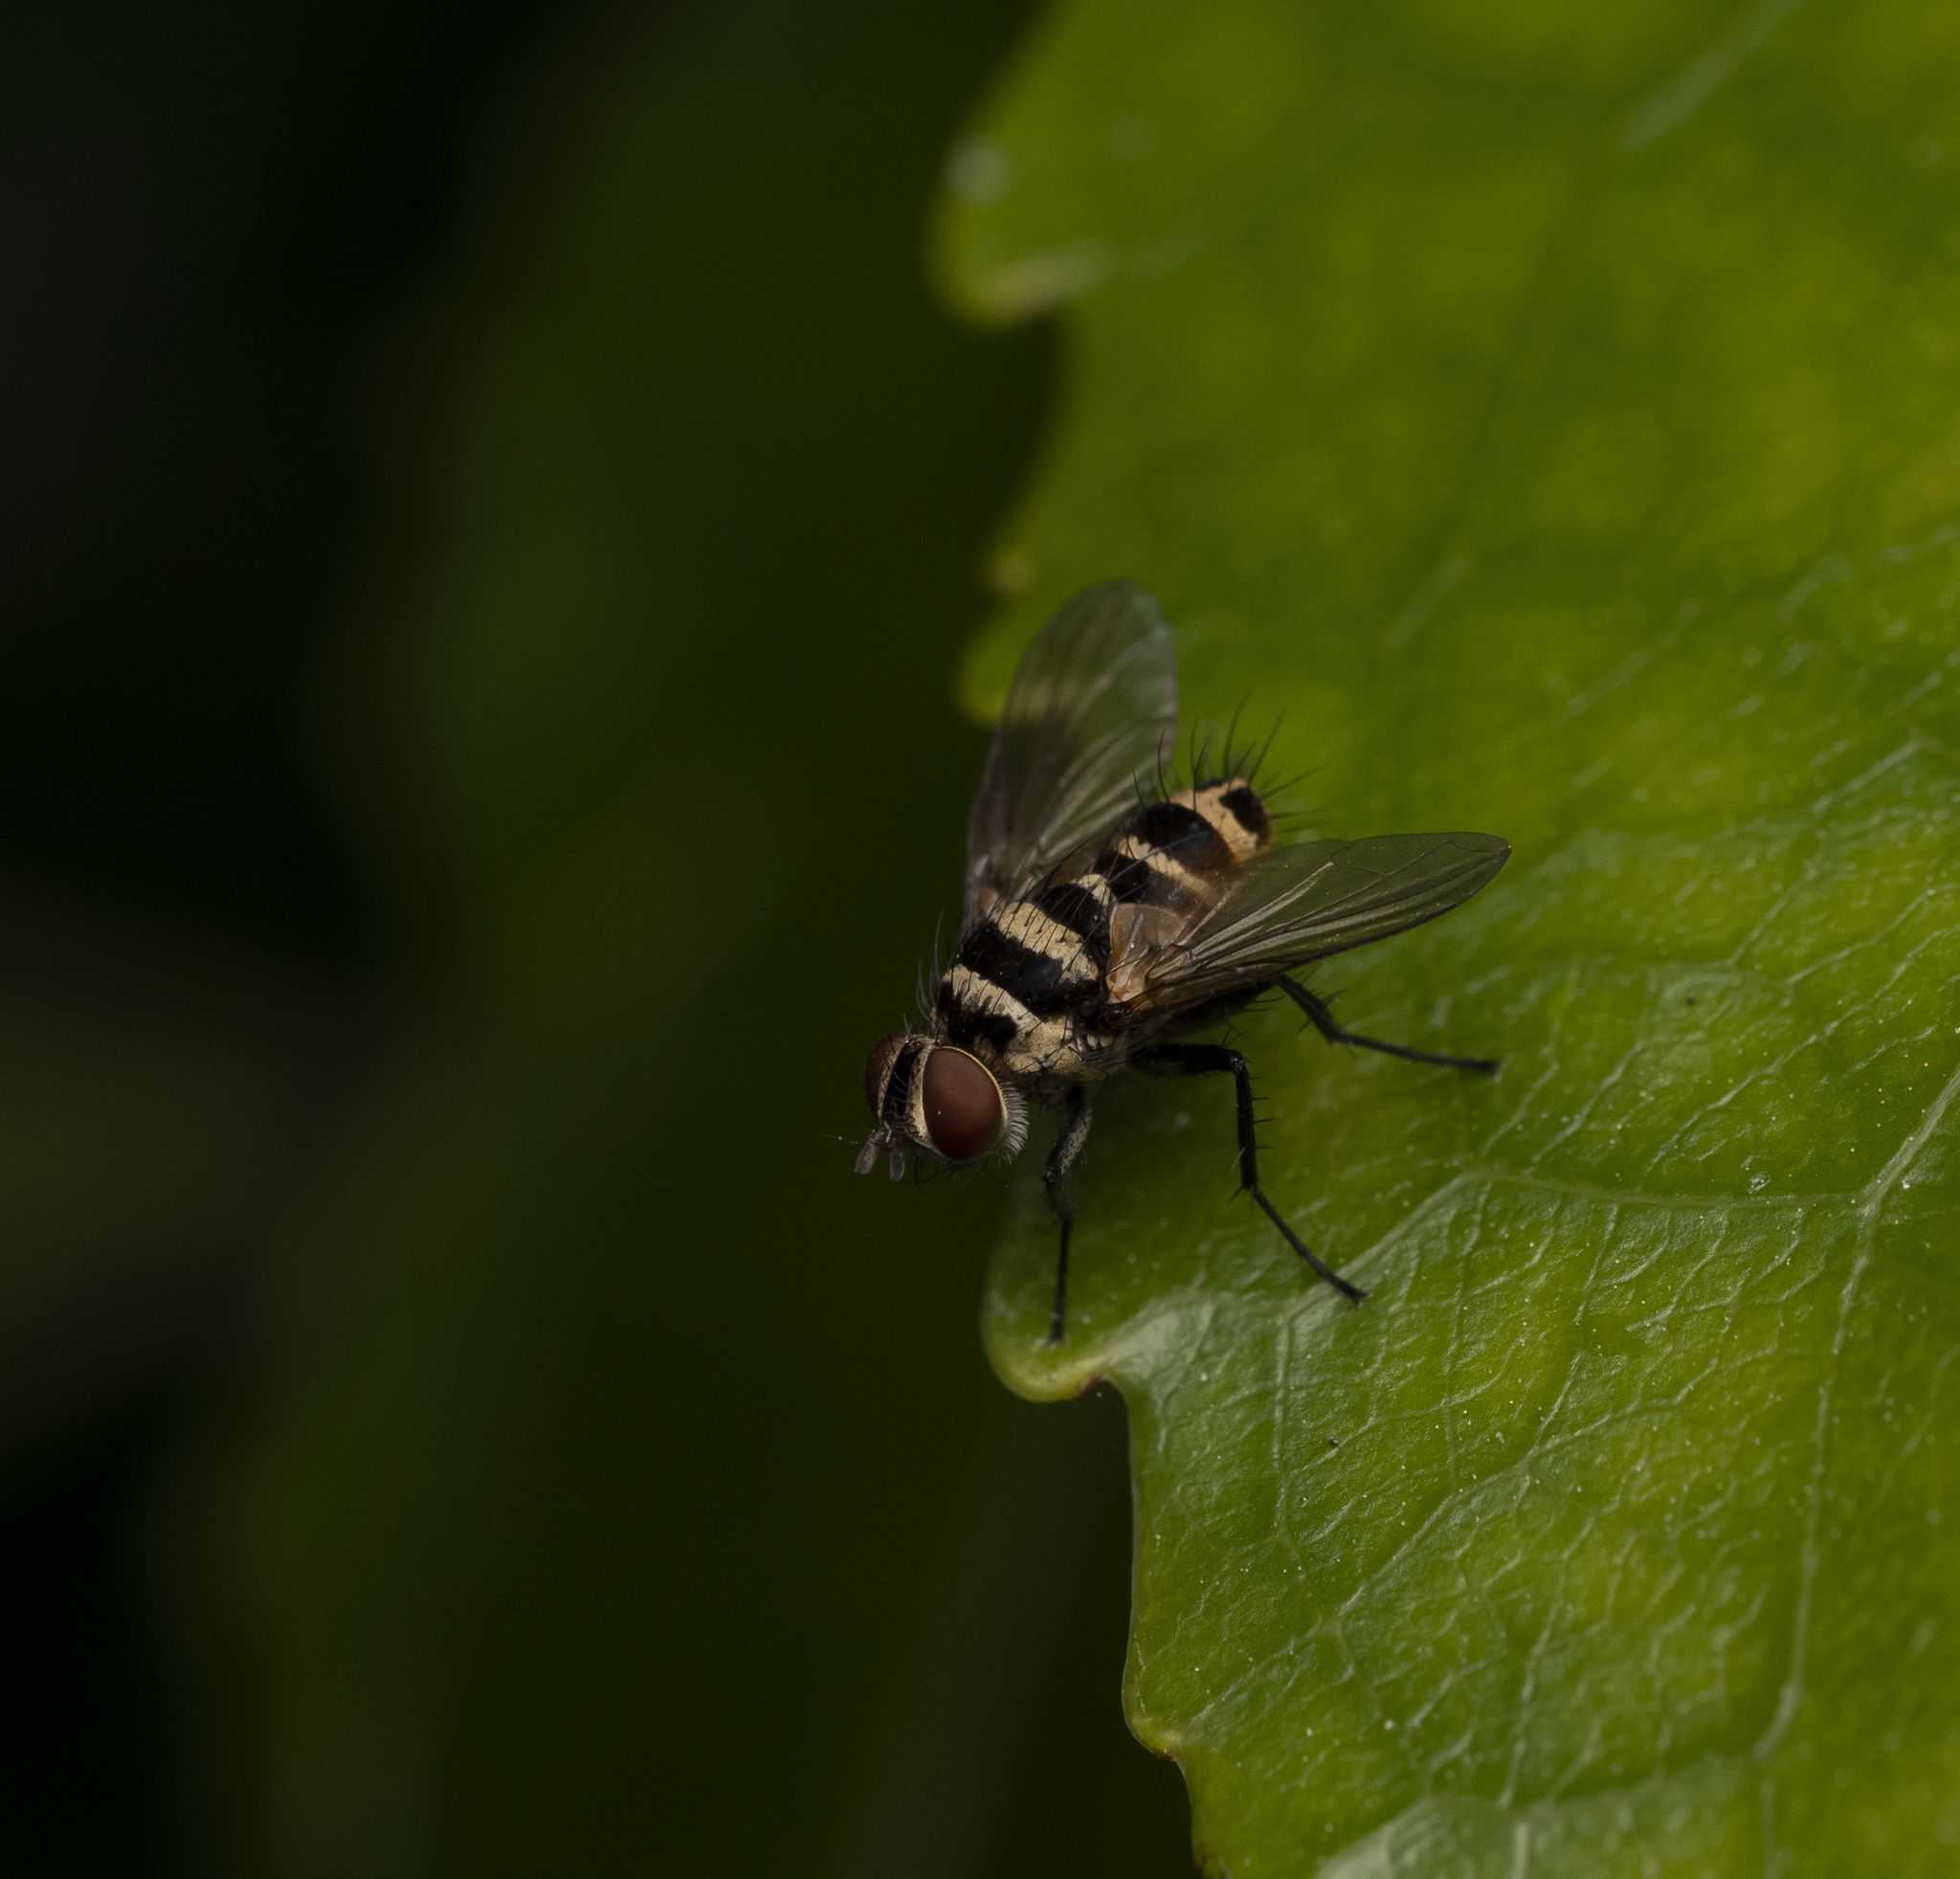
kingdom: Animalia
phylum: Arthropoda
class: Insecta
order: Diptera
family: Tachinidae
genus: Trigonospila
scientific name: Trigonospila brevifacies
